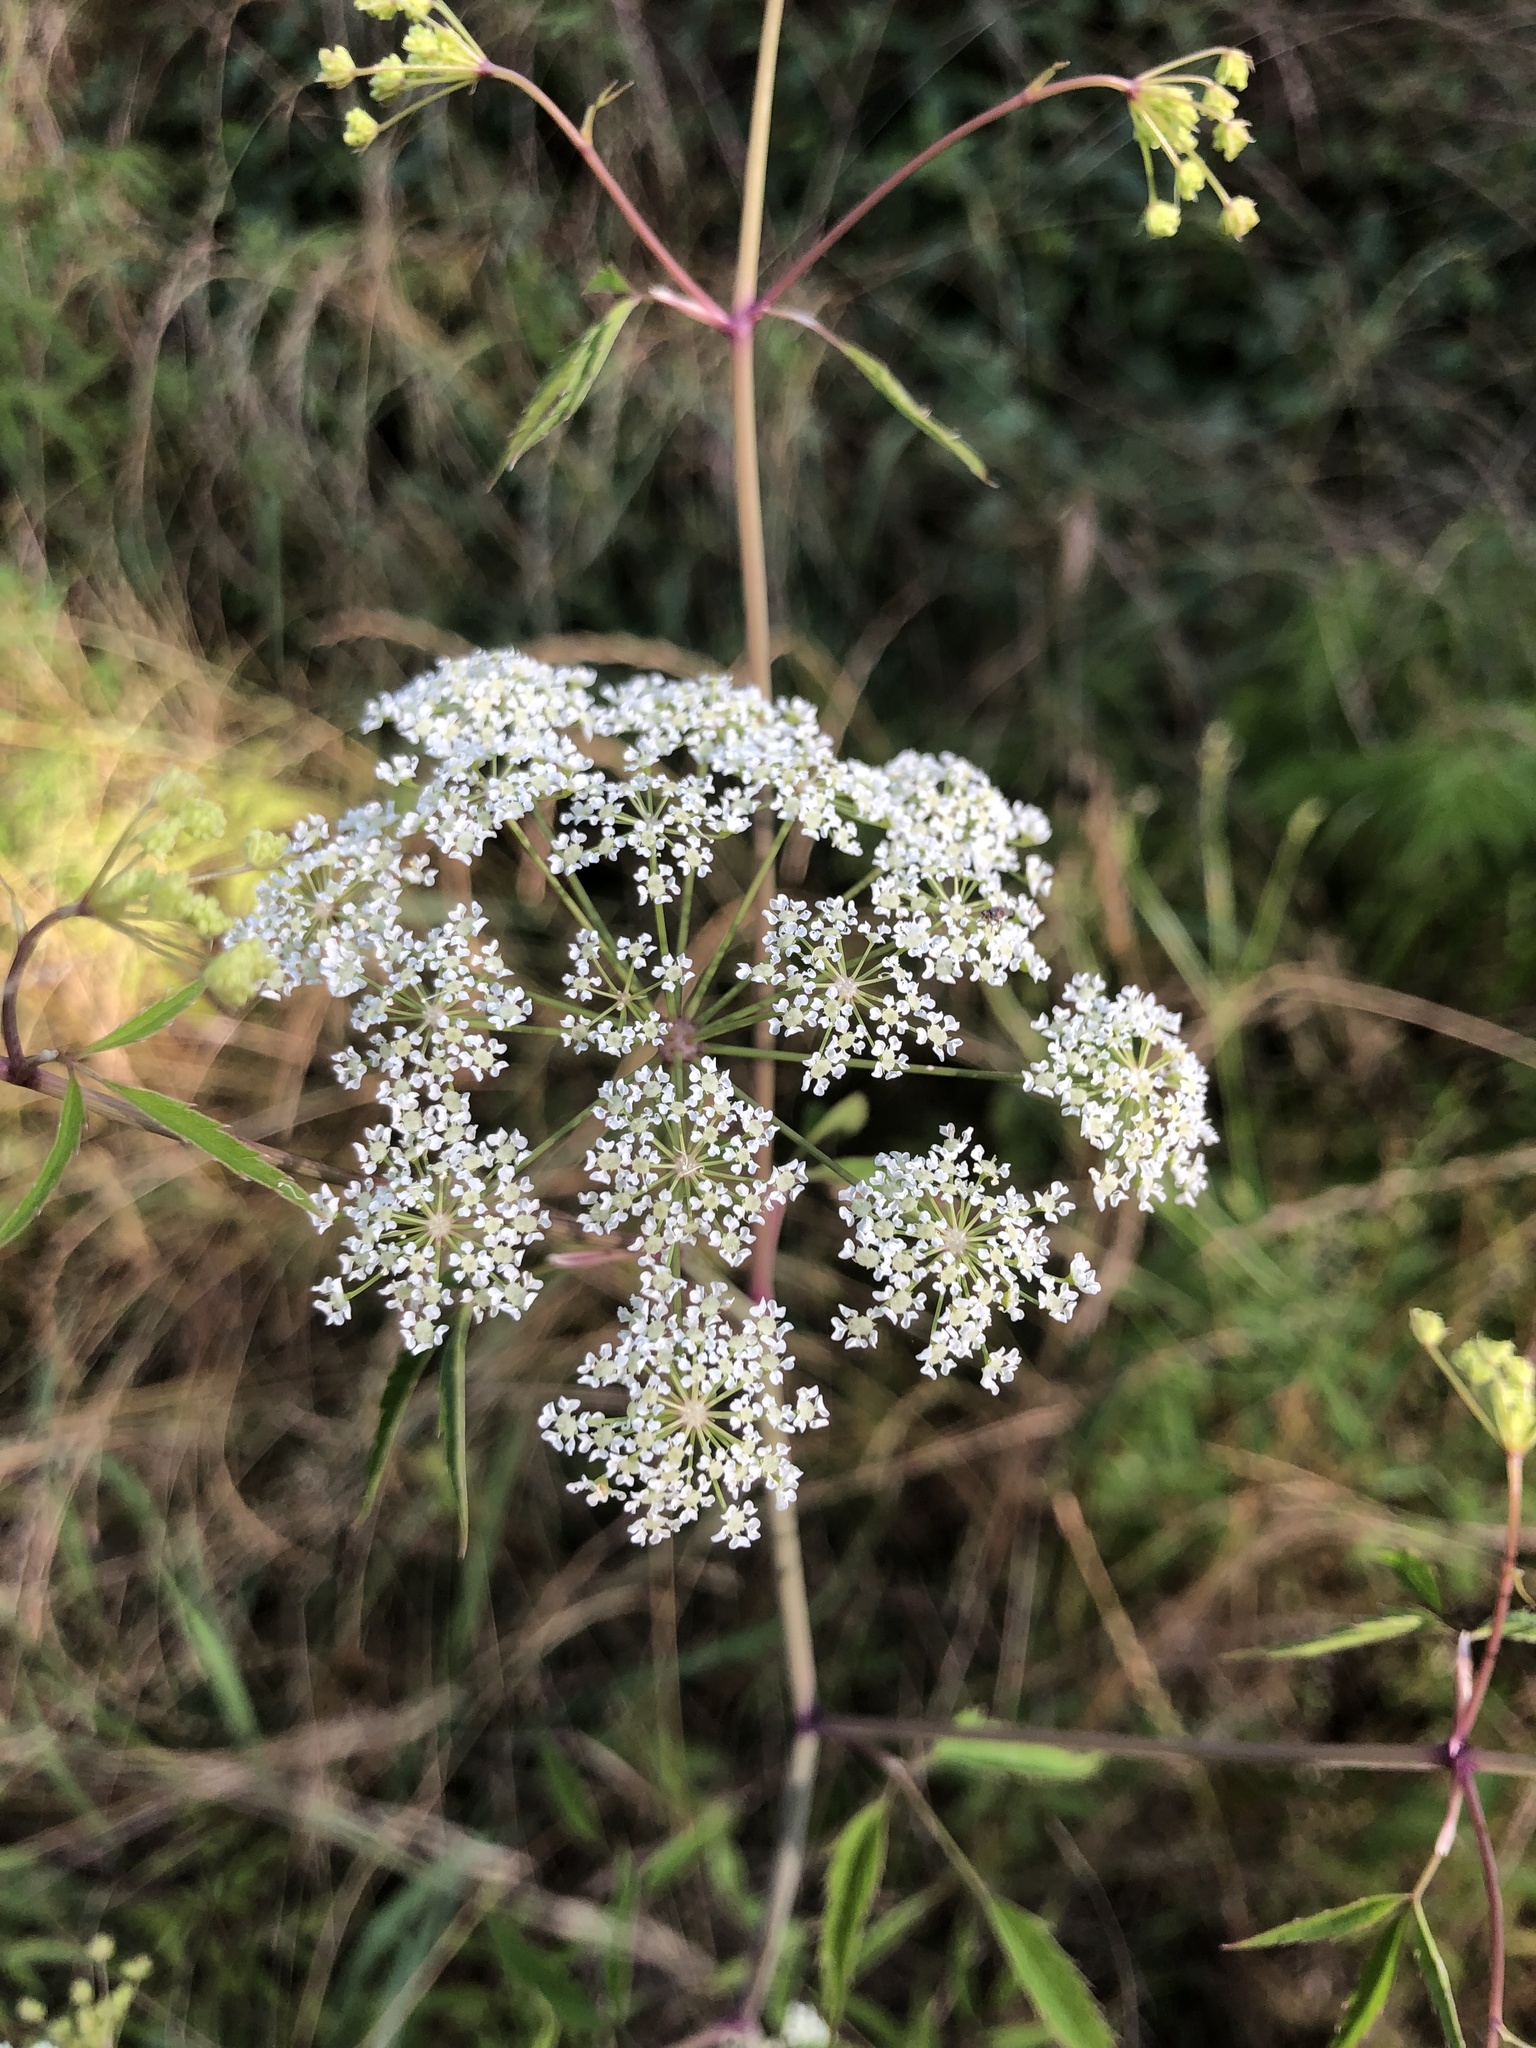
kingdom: Plantae
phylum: Tracheophyta
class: Magnoliopsida
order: Apiales
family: Apiaceae
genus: Cicuta
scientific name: Cicuta maculata
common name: Spotted cowbane
